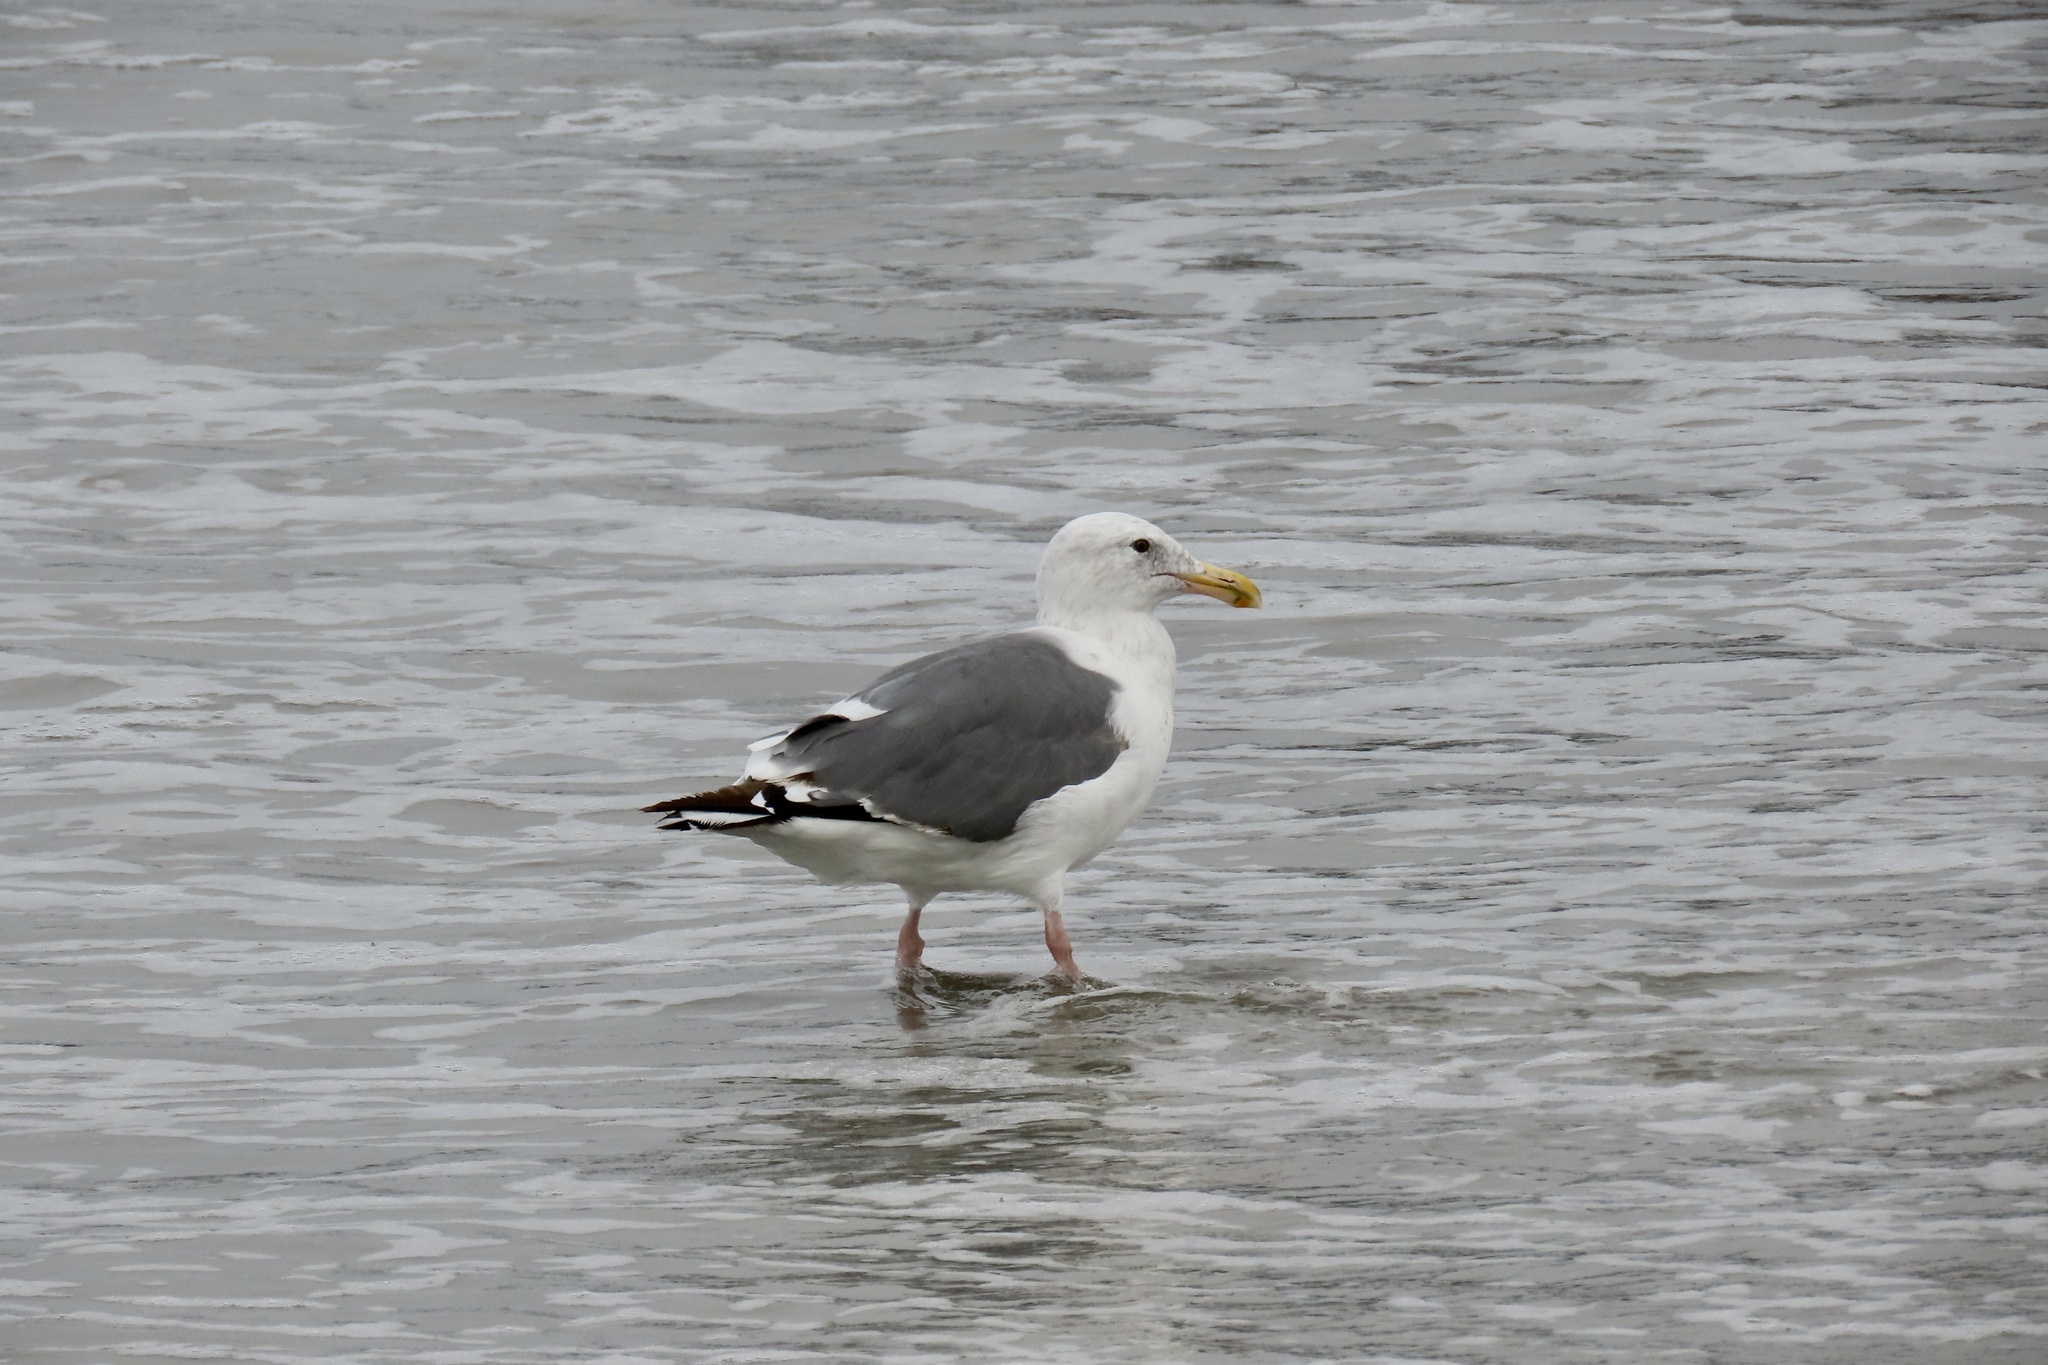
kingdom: Animalia
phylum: Chordata
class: Aves
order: Charadriiformes
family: Laridae
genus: Larus
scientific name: Larus occidentalis
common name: Western gull
